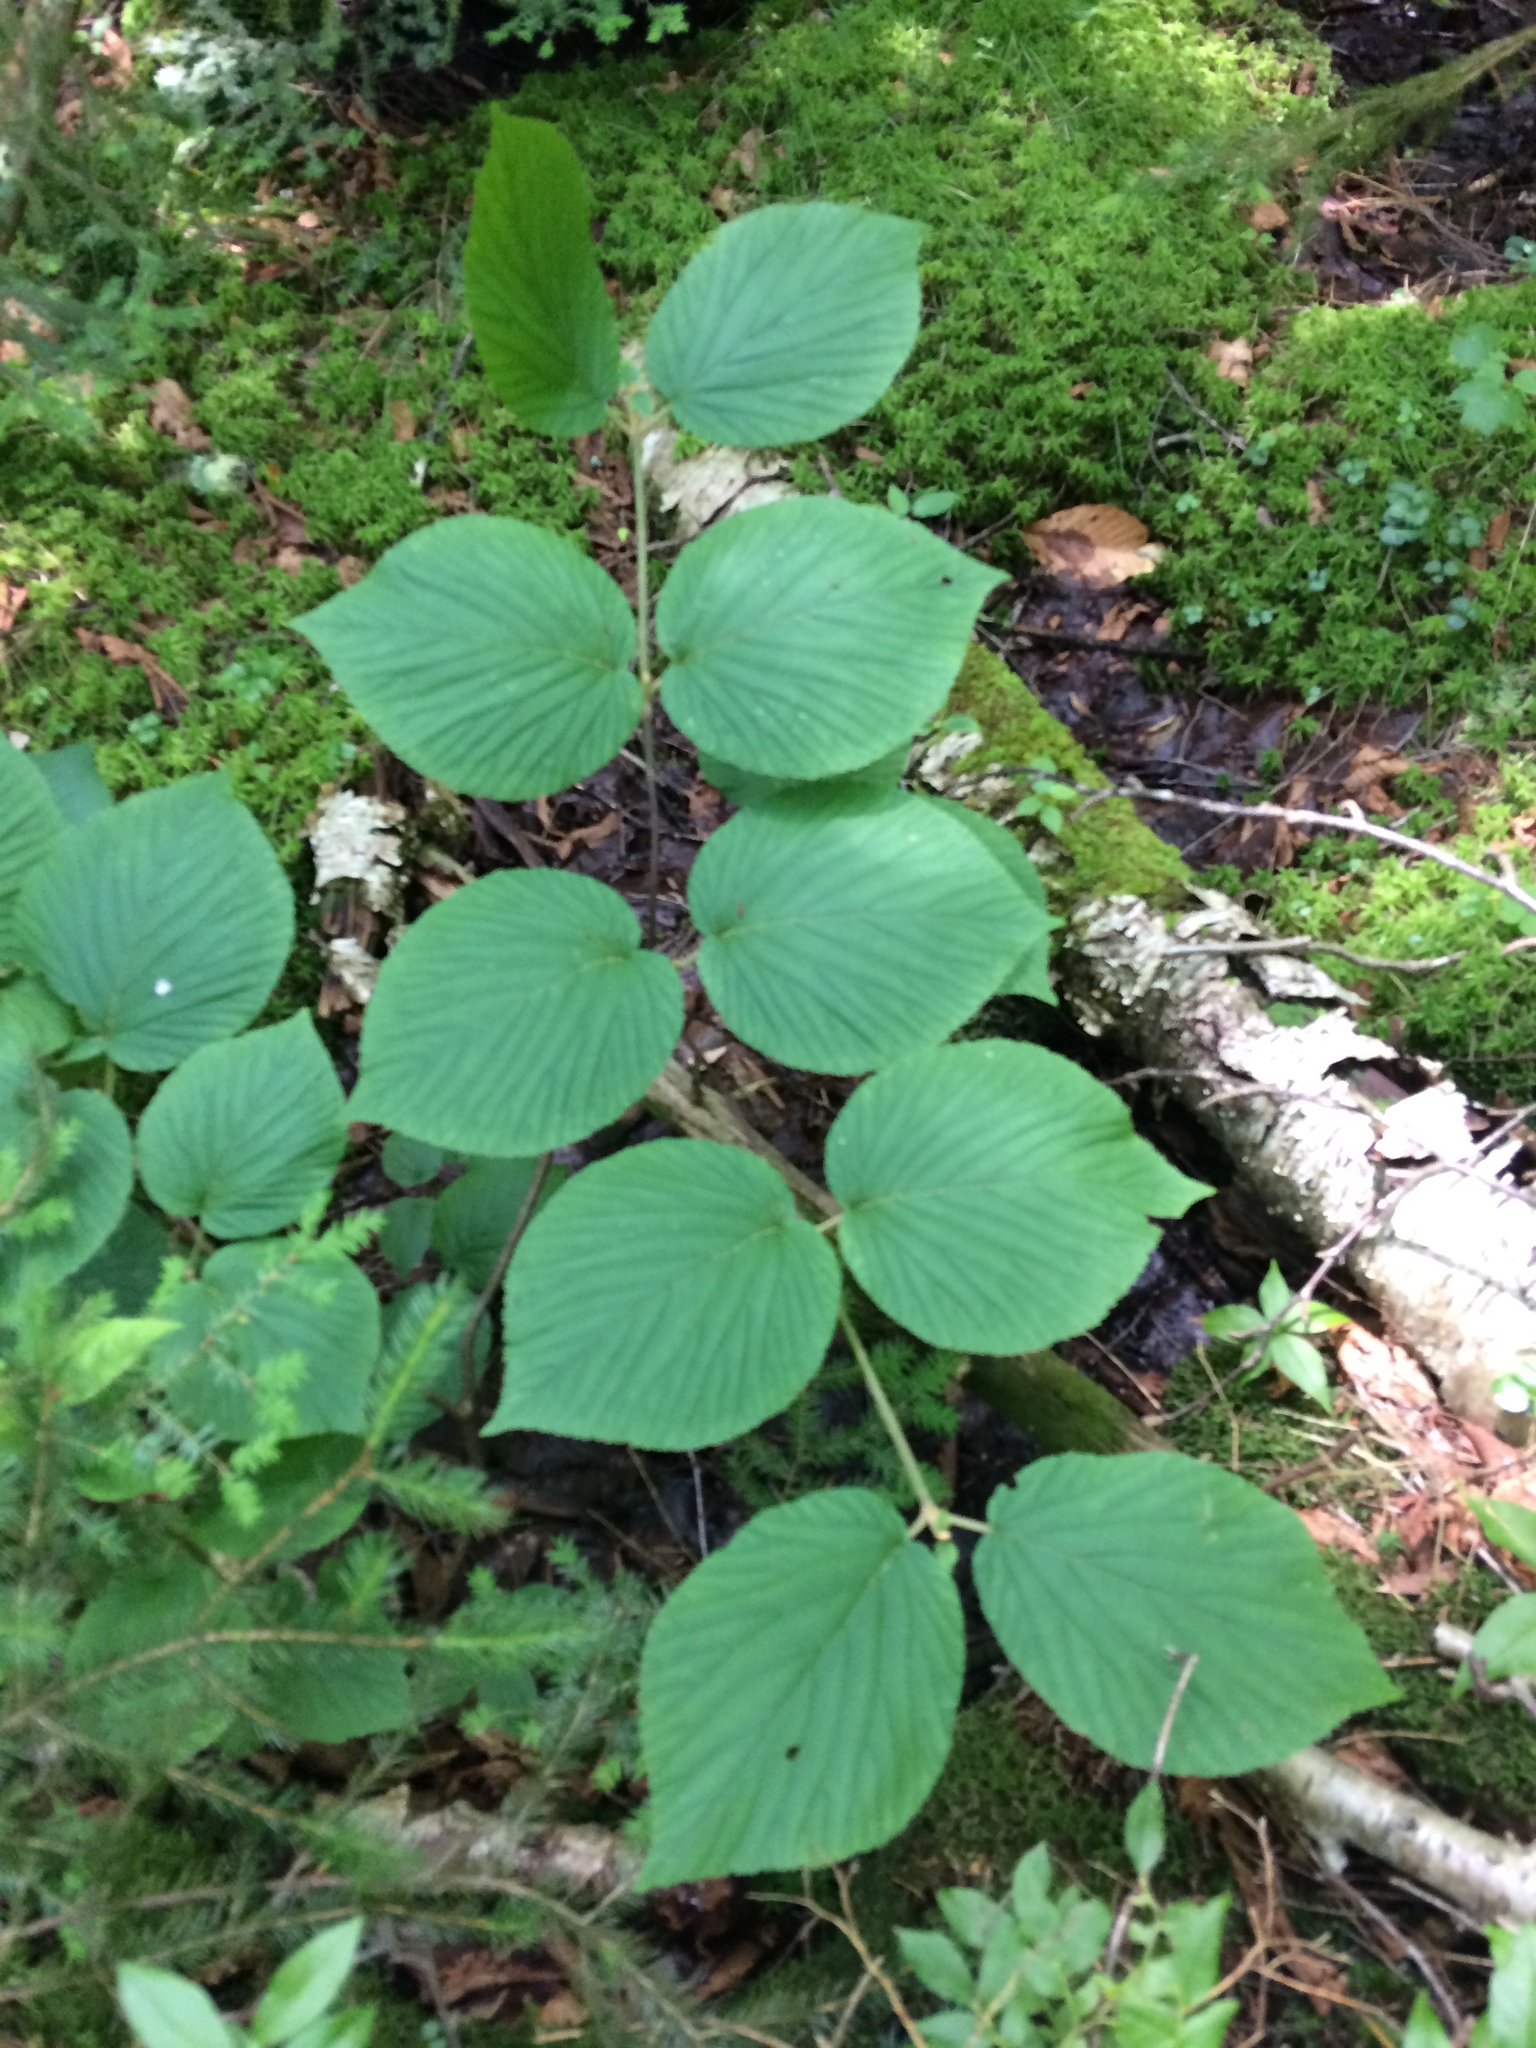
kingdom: Plantae
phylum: Tracheophyta
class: Magnoliopsida
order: Dipsacales
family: Viburnaceae
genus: Viburnum
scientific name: Viburnum lantanoides
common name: Hobblebush
